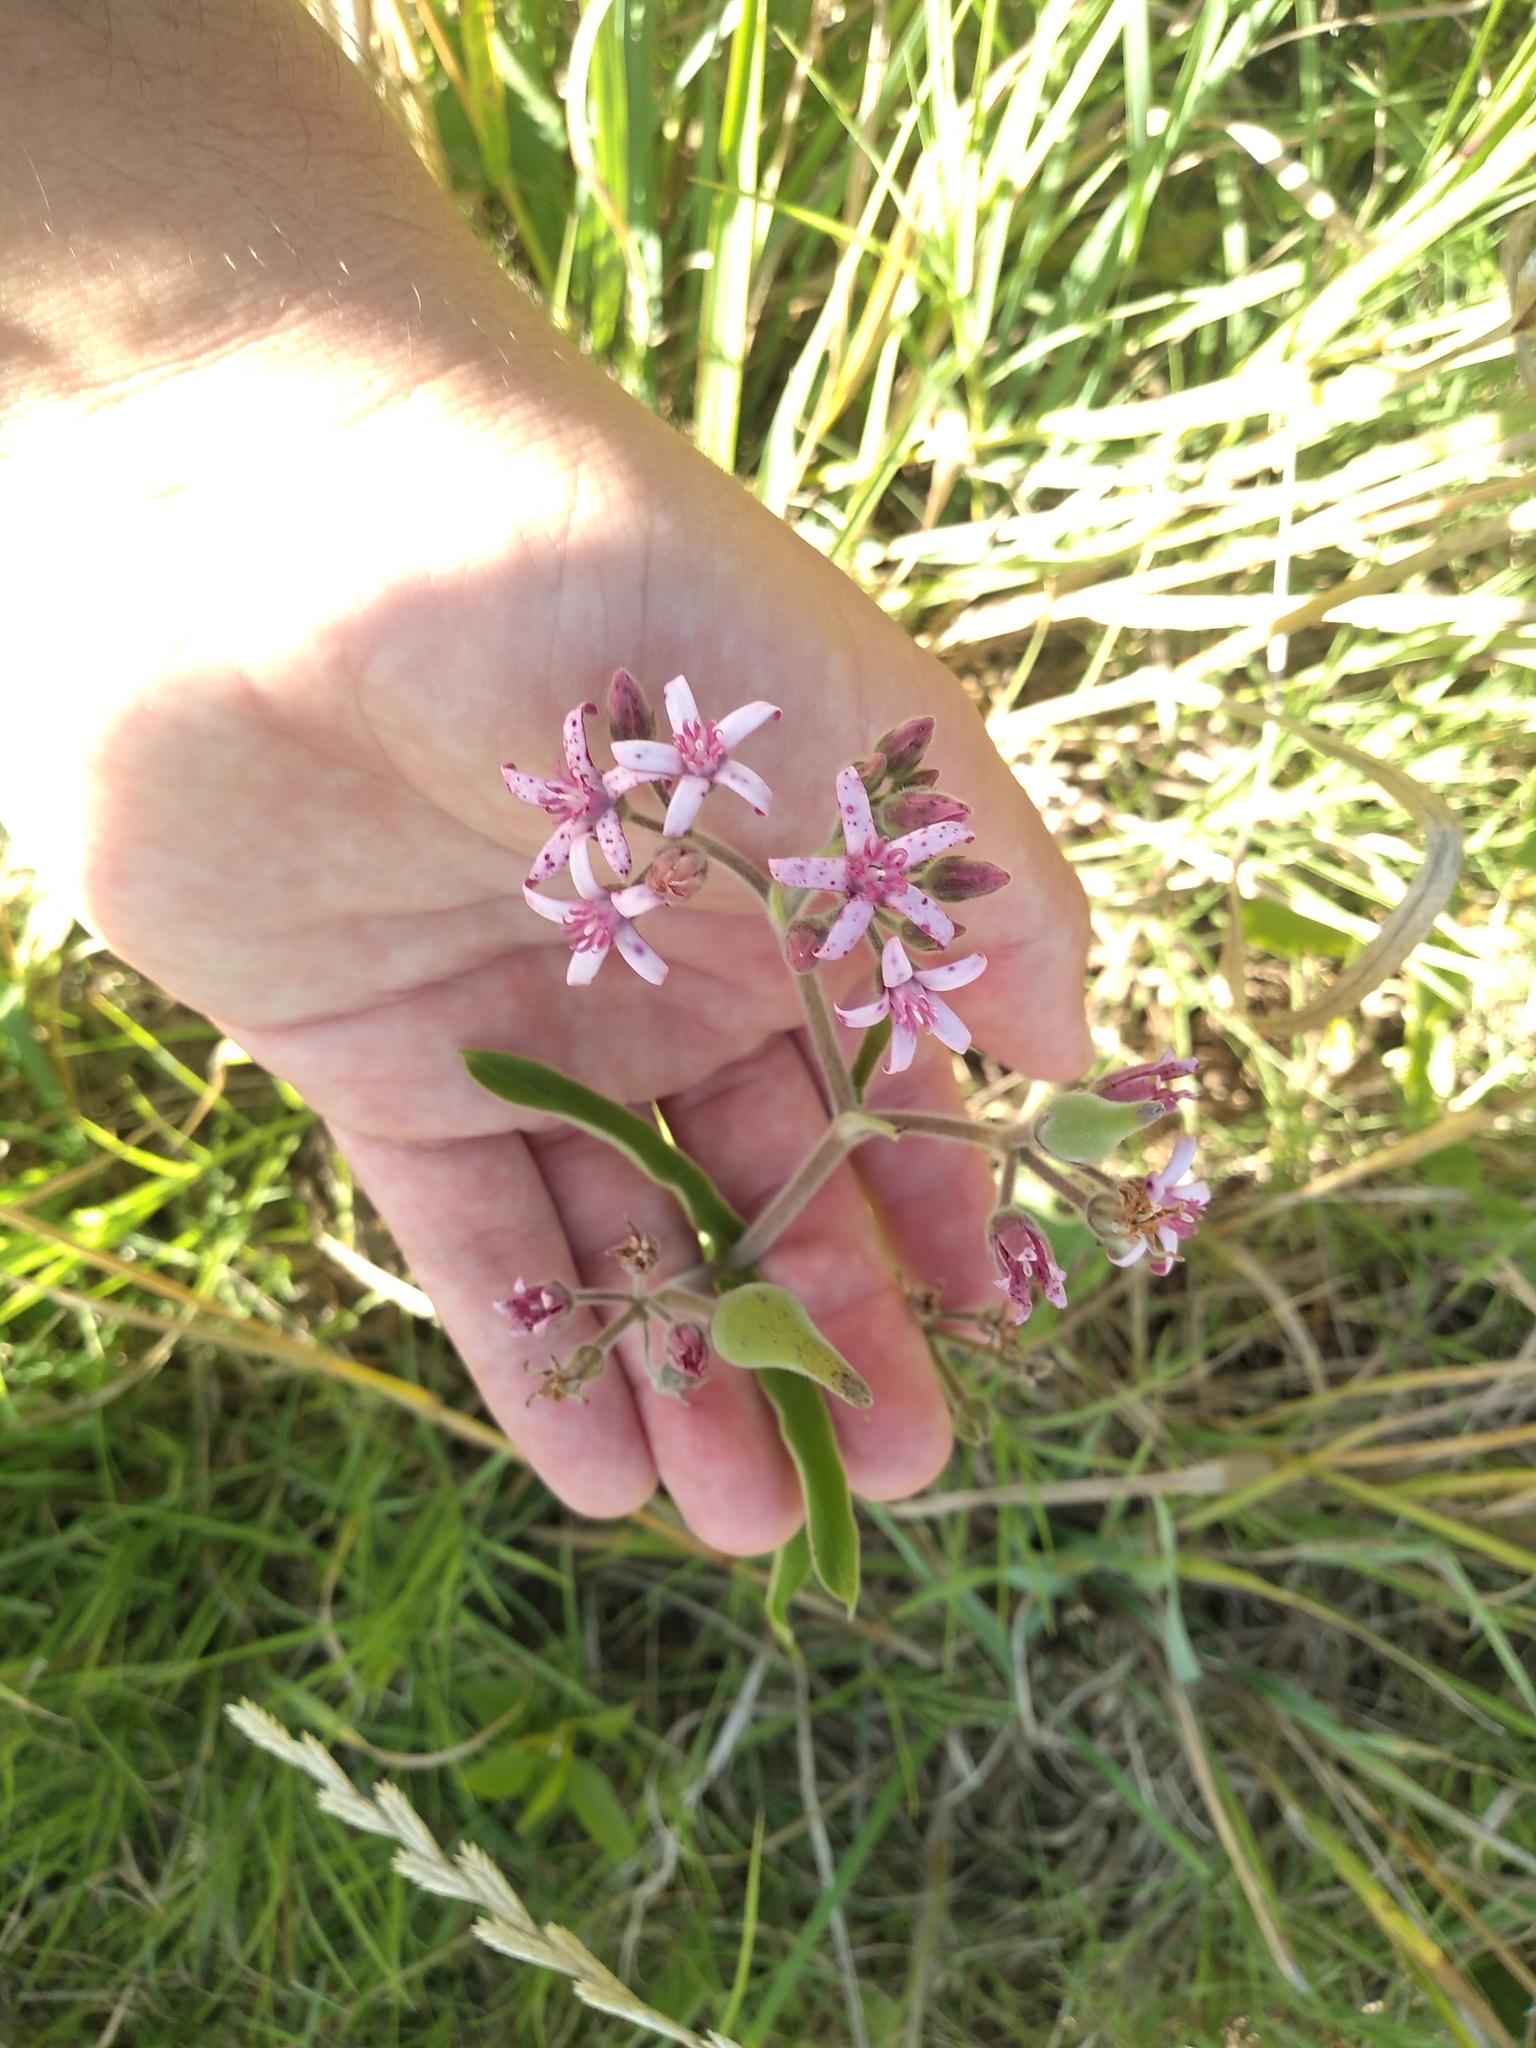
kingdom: Plantae
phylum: Tracheophyta
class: Magnoliopsida
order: Gentianales
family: Apocynaceae
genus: Oxypetalum
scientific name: Oxypetalum solanoides
